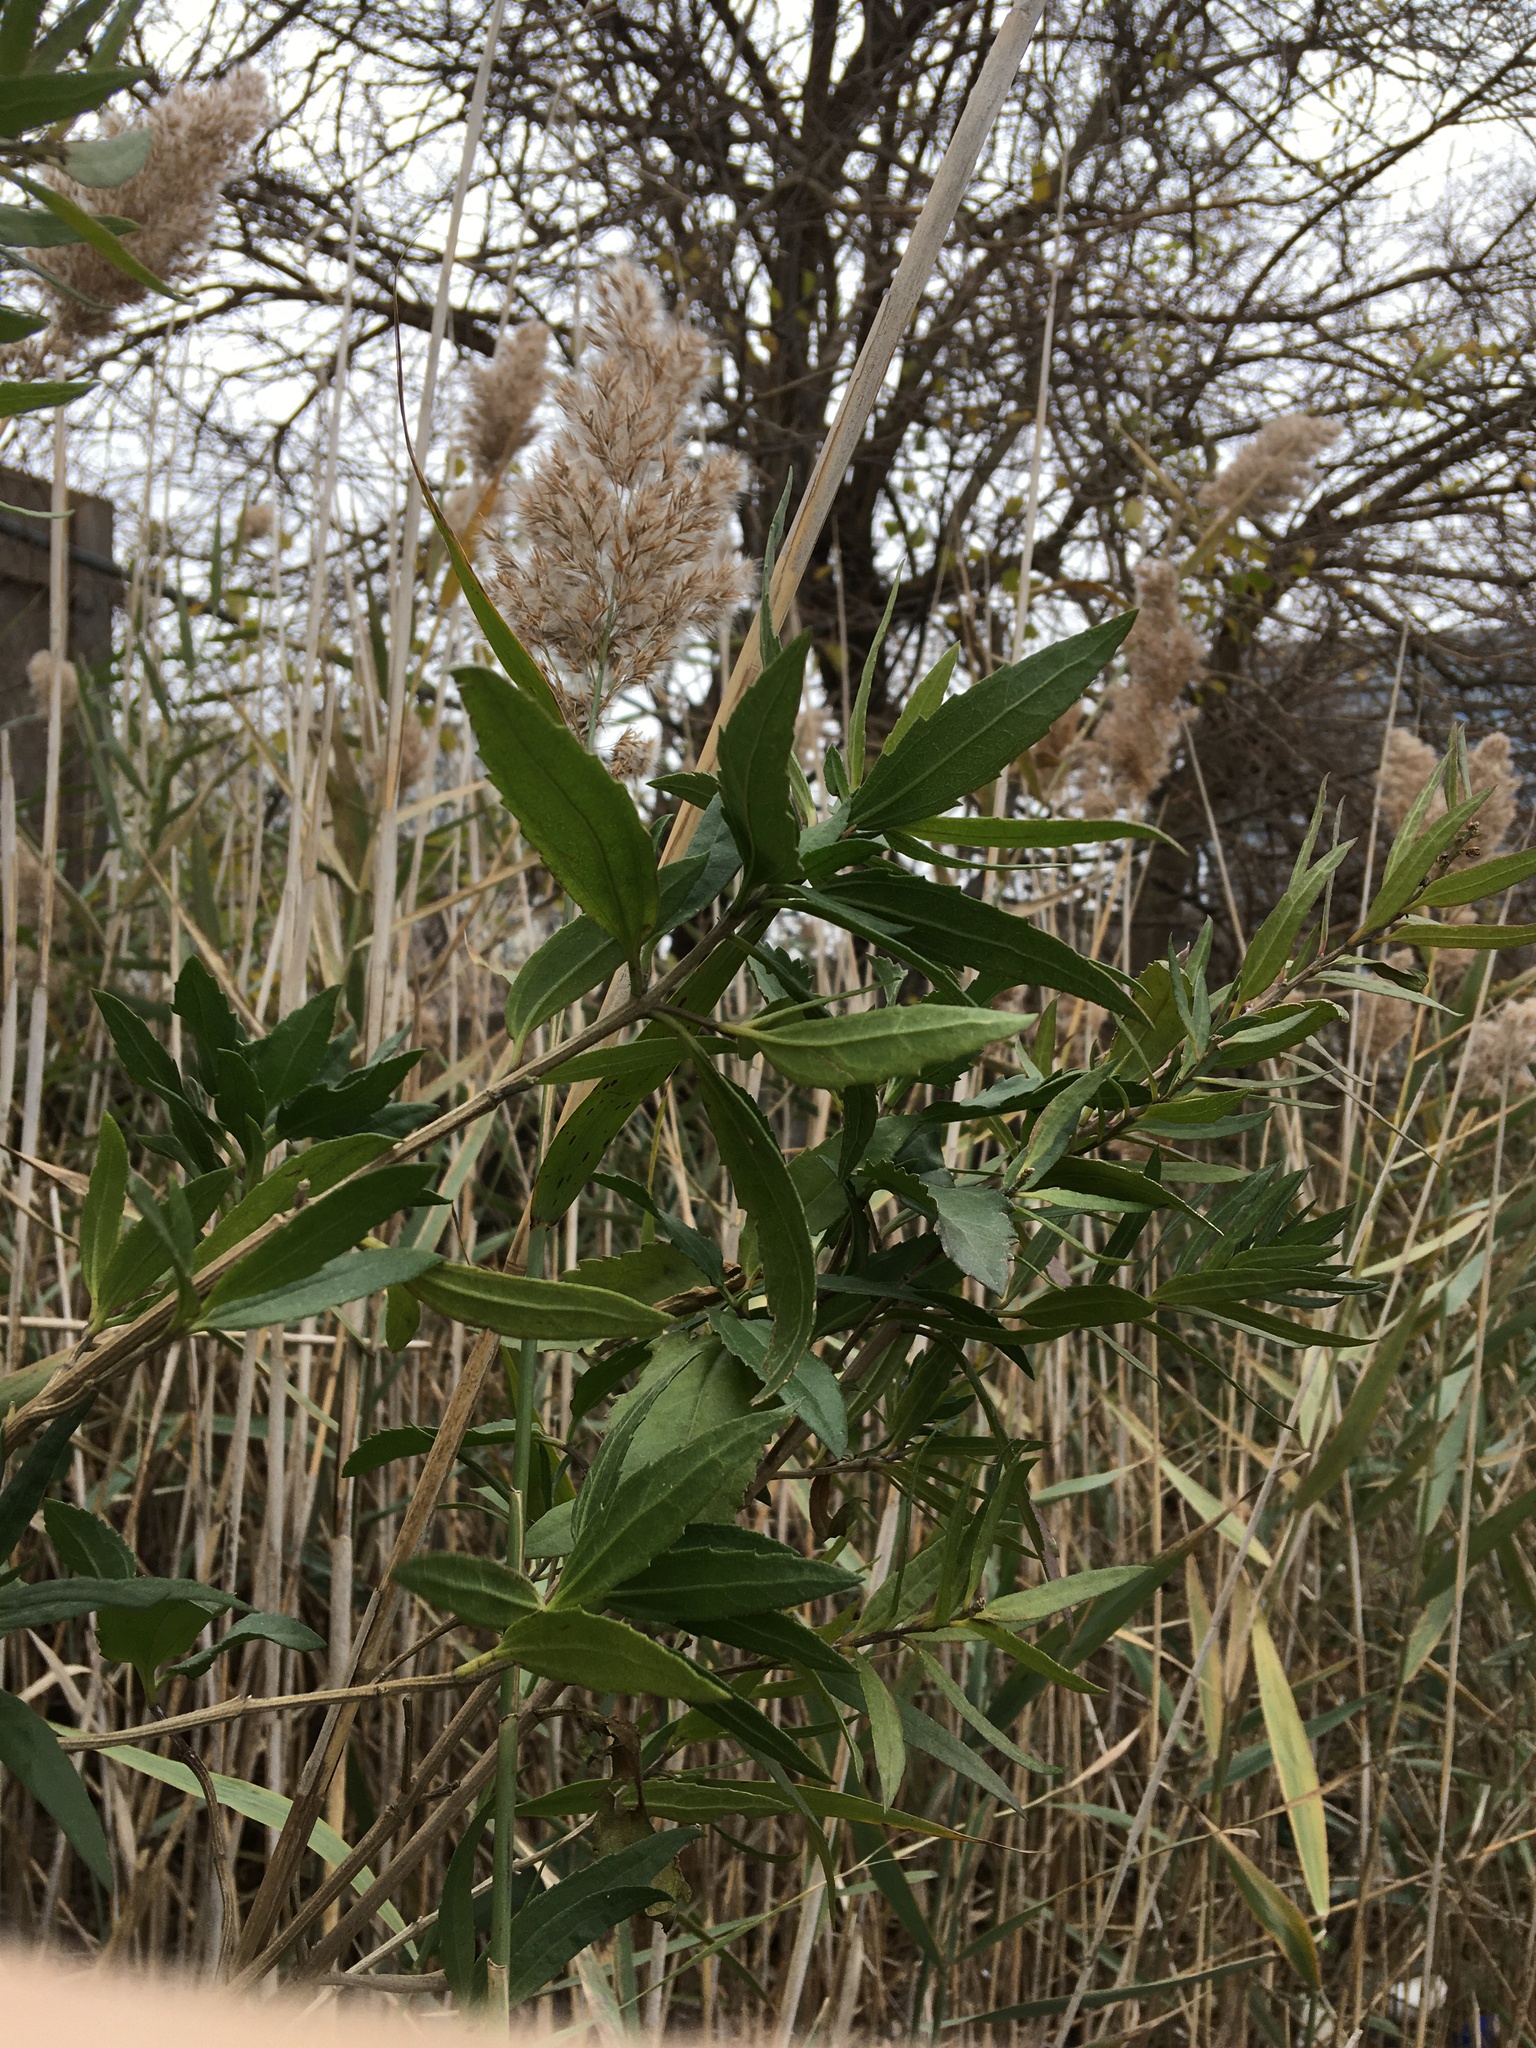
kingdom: Plantae
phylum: Tracheophyta
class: Magnoliopsida
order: Asterales
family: Asteraceae
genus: Iva
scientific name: Iva frutescens
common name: Big-leaved marsh-elder
